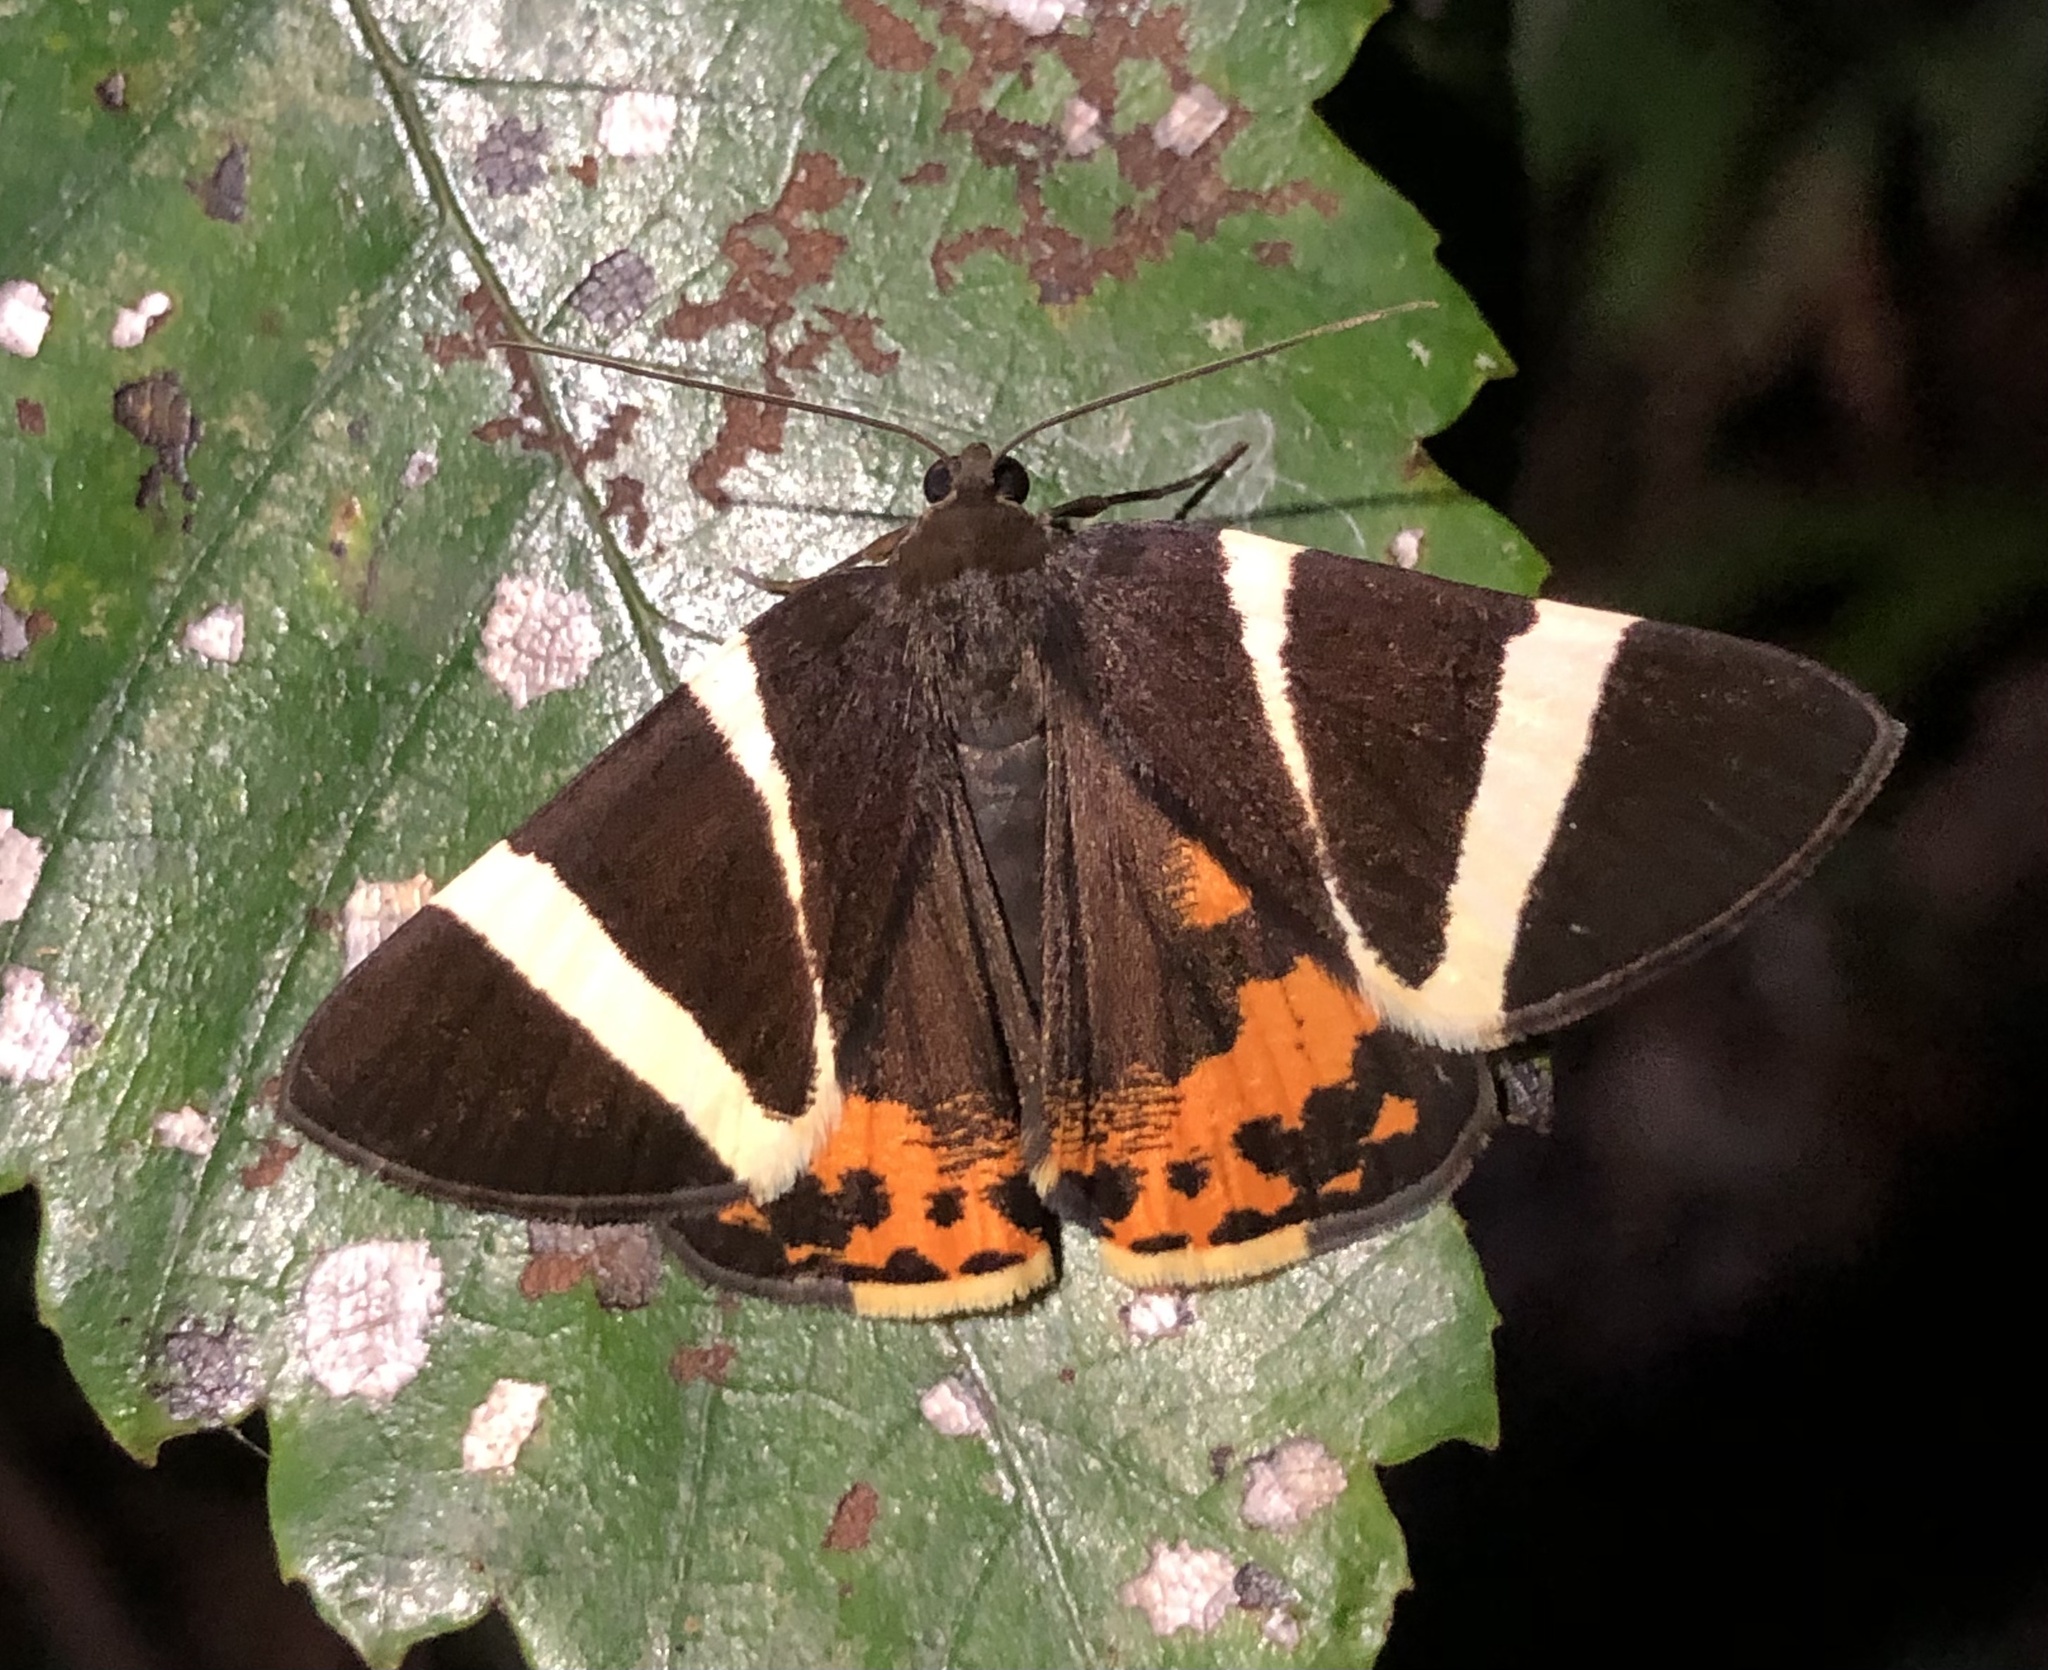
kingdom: Animalia
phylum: Arthropoda
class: Insecta
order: Lepidoptera
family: Geometridae
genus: Lychnographa
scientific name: Lychnographa heroica
